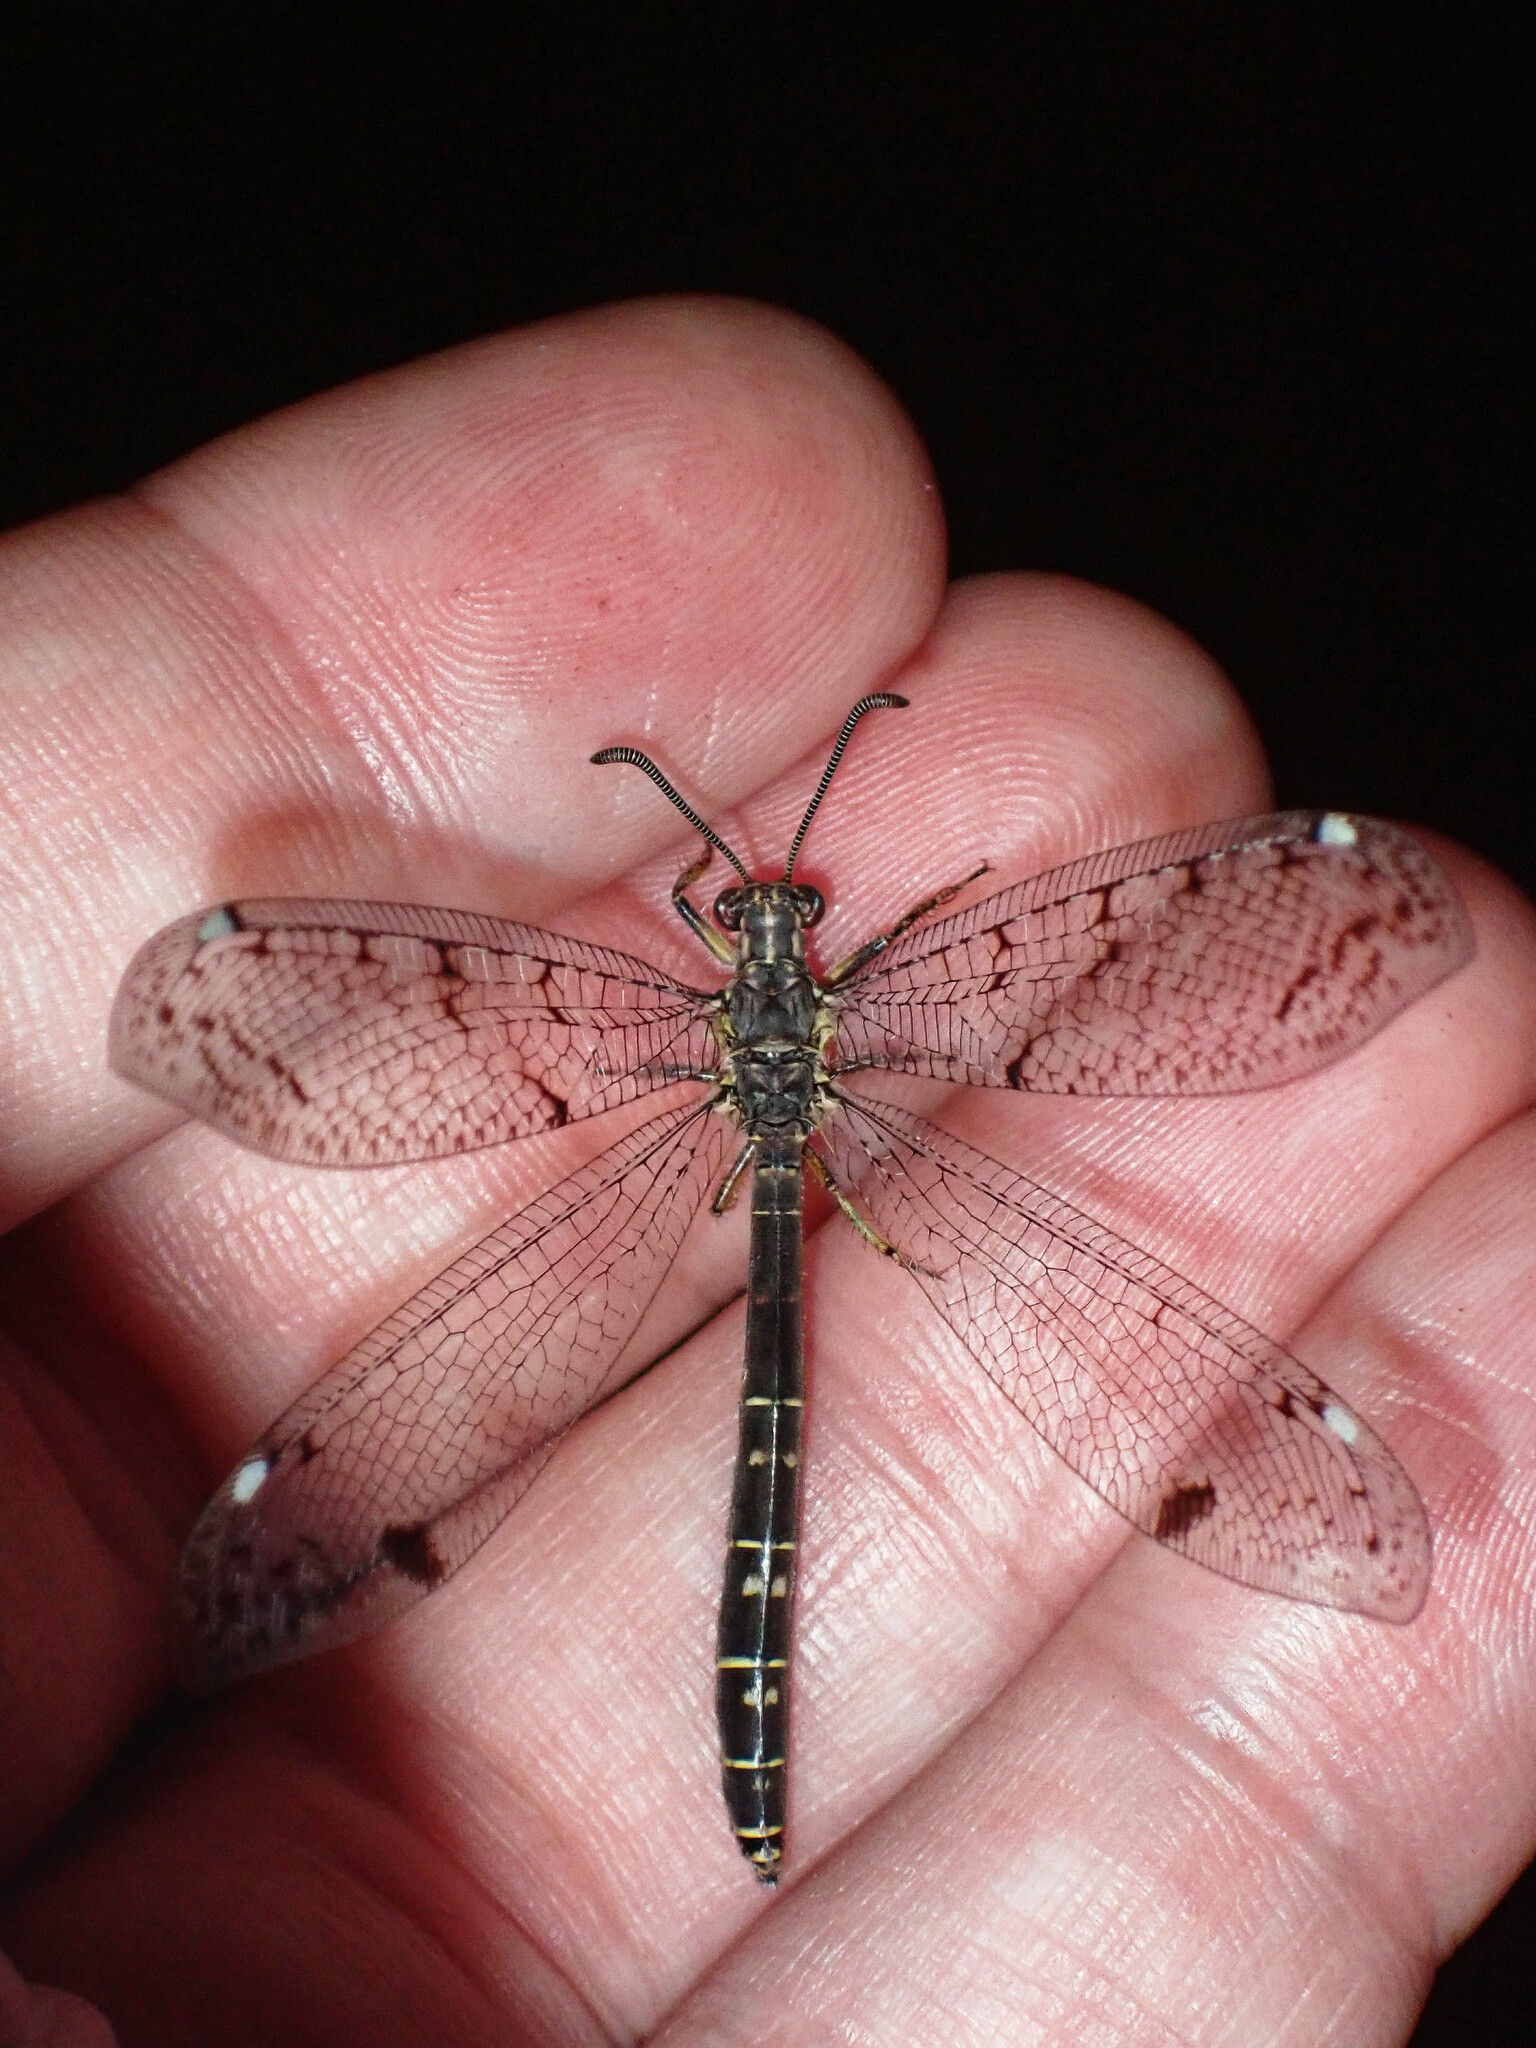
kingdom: Animalia
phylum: Arthropoda
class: Insecta
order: Neuroptera
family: Myrmeleontidae
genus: Distoleon
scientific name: Distoleon tetragrammicus
